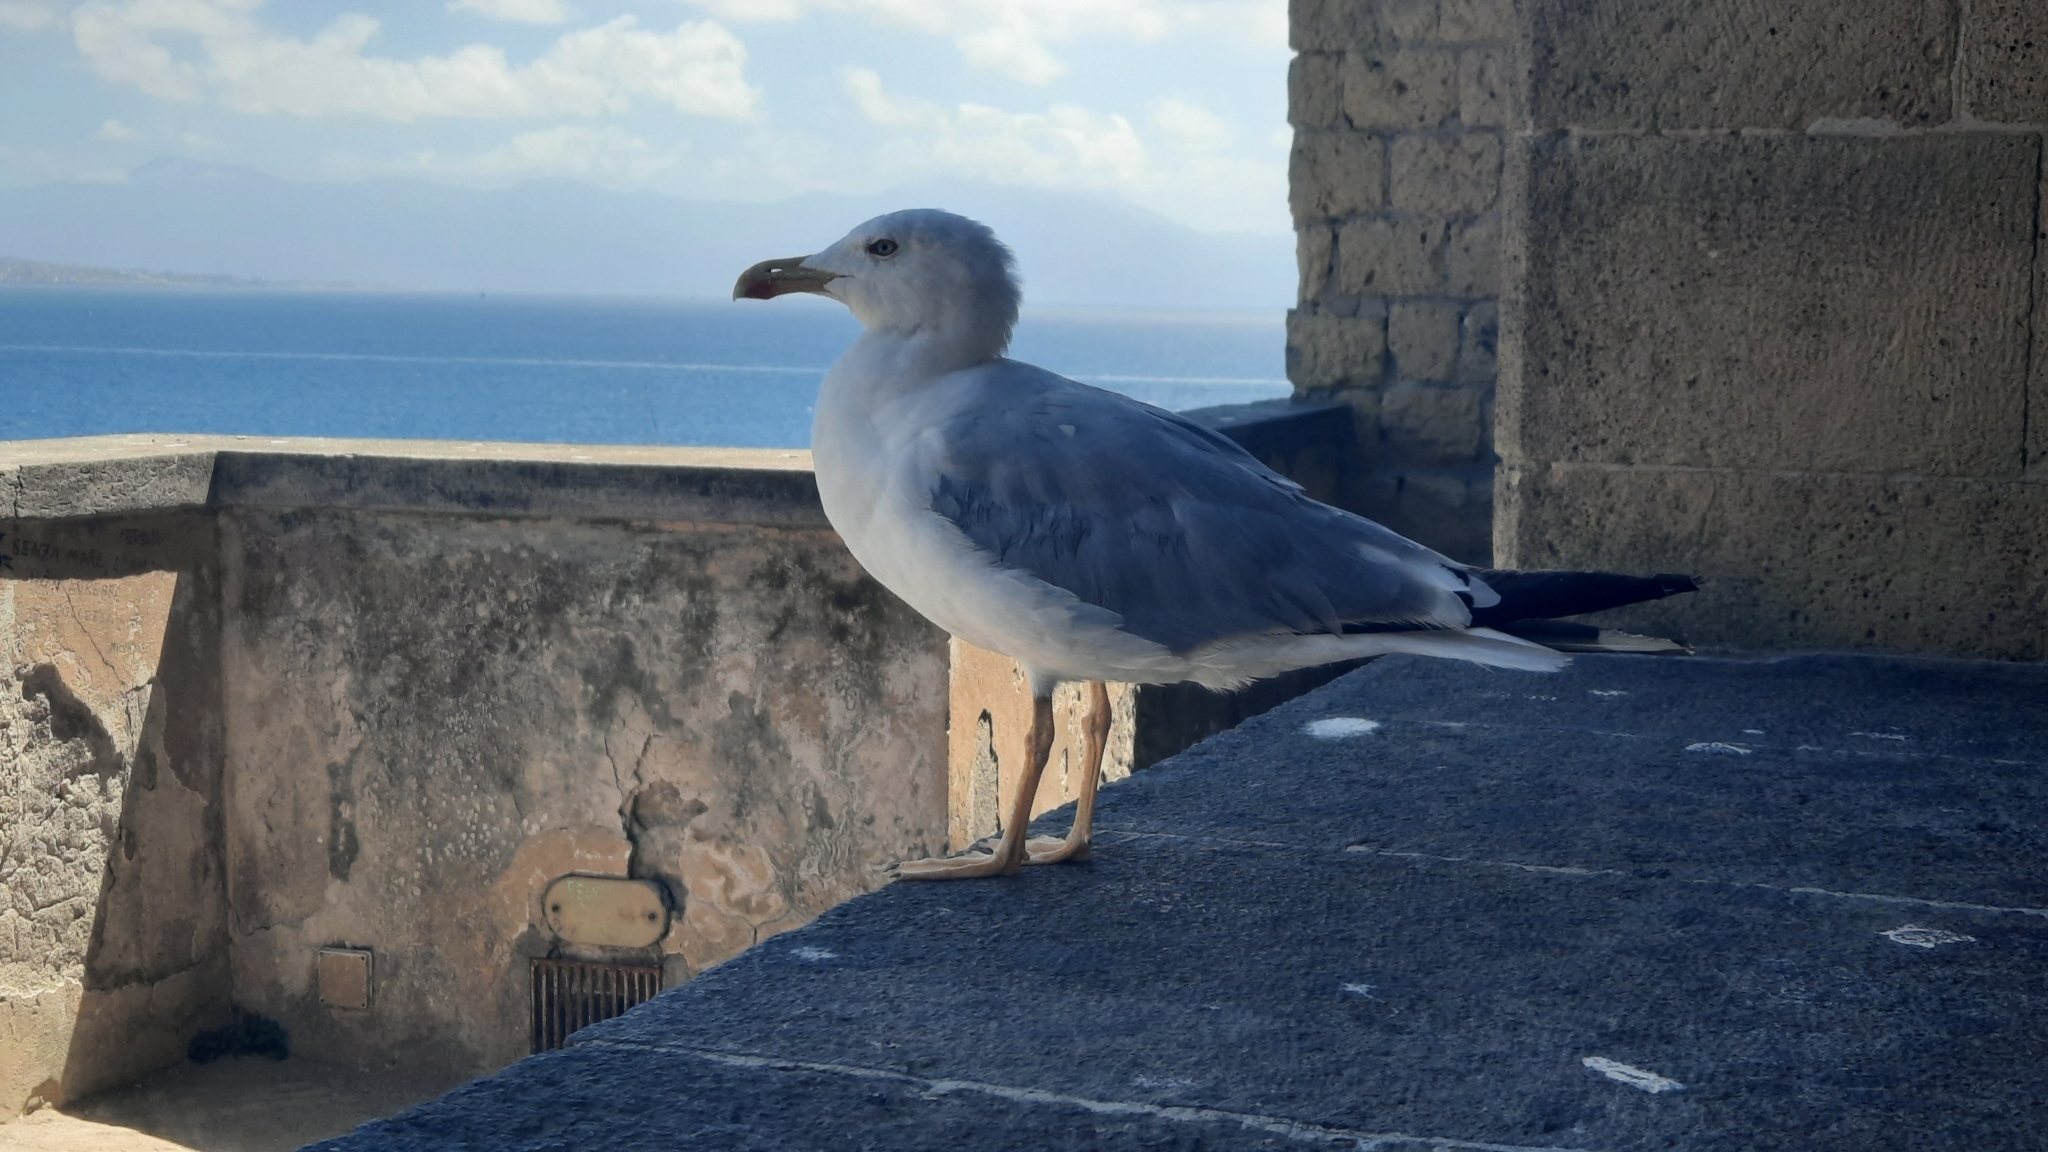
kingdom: Animalia
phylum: Chordata
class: Aves
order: Charadriiformes
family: Laridae
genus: Larus
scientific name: Larus michahellis
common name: Yellow-legged gull
